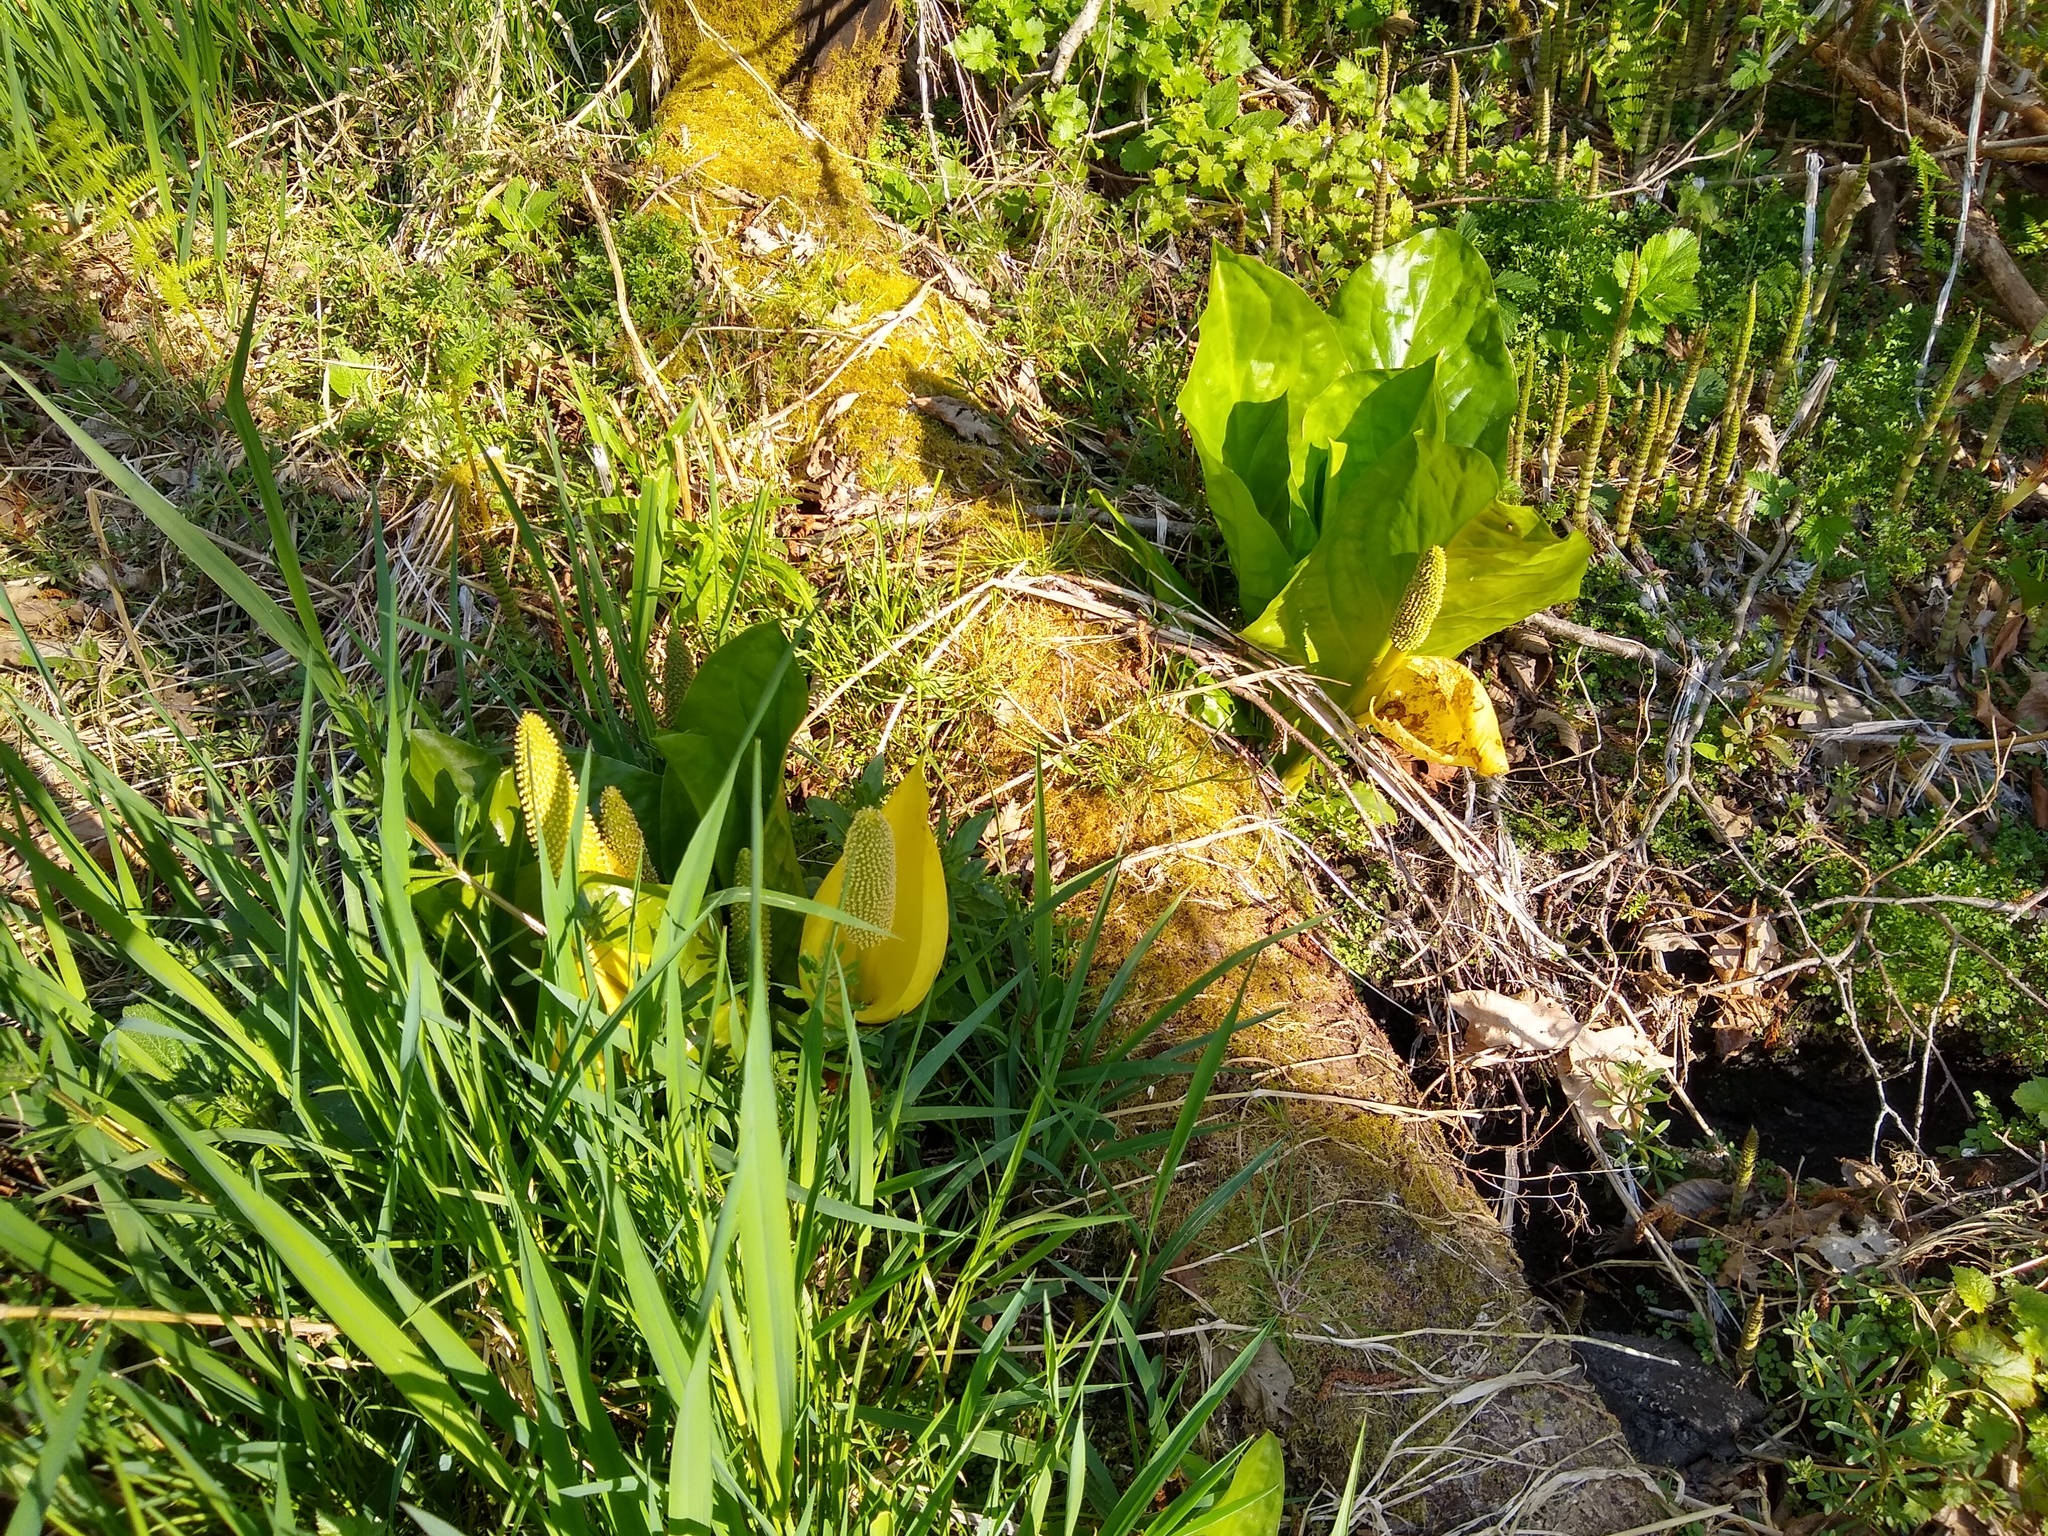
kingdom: Plantae
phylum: Tracheophyta
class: Liliopsida
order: Alismatales
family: Araceae
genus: Lysichiton
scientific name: Lysichiton americanus
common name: American skunk cabbage
